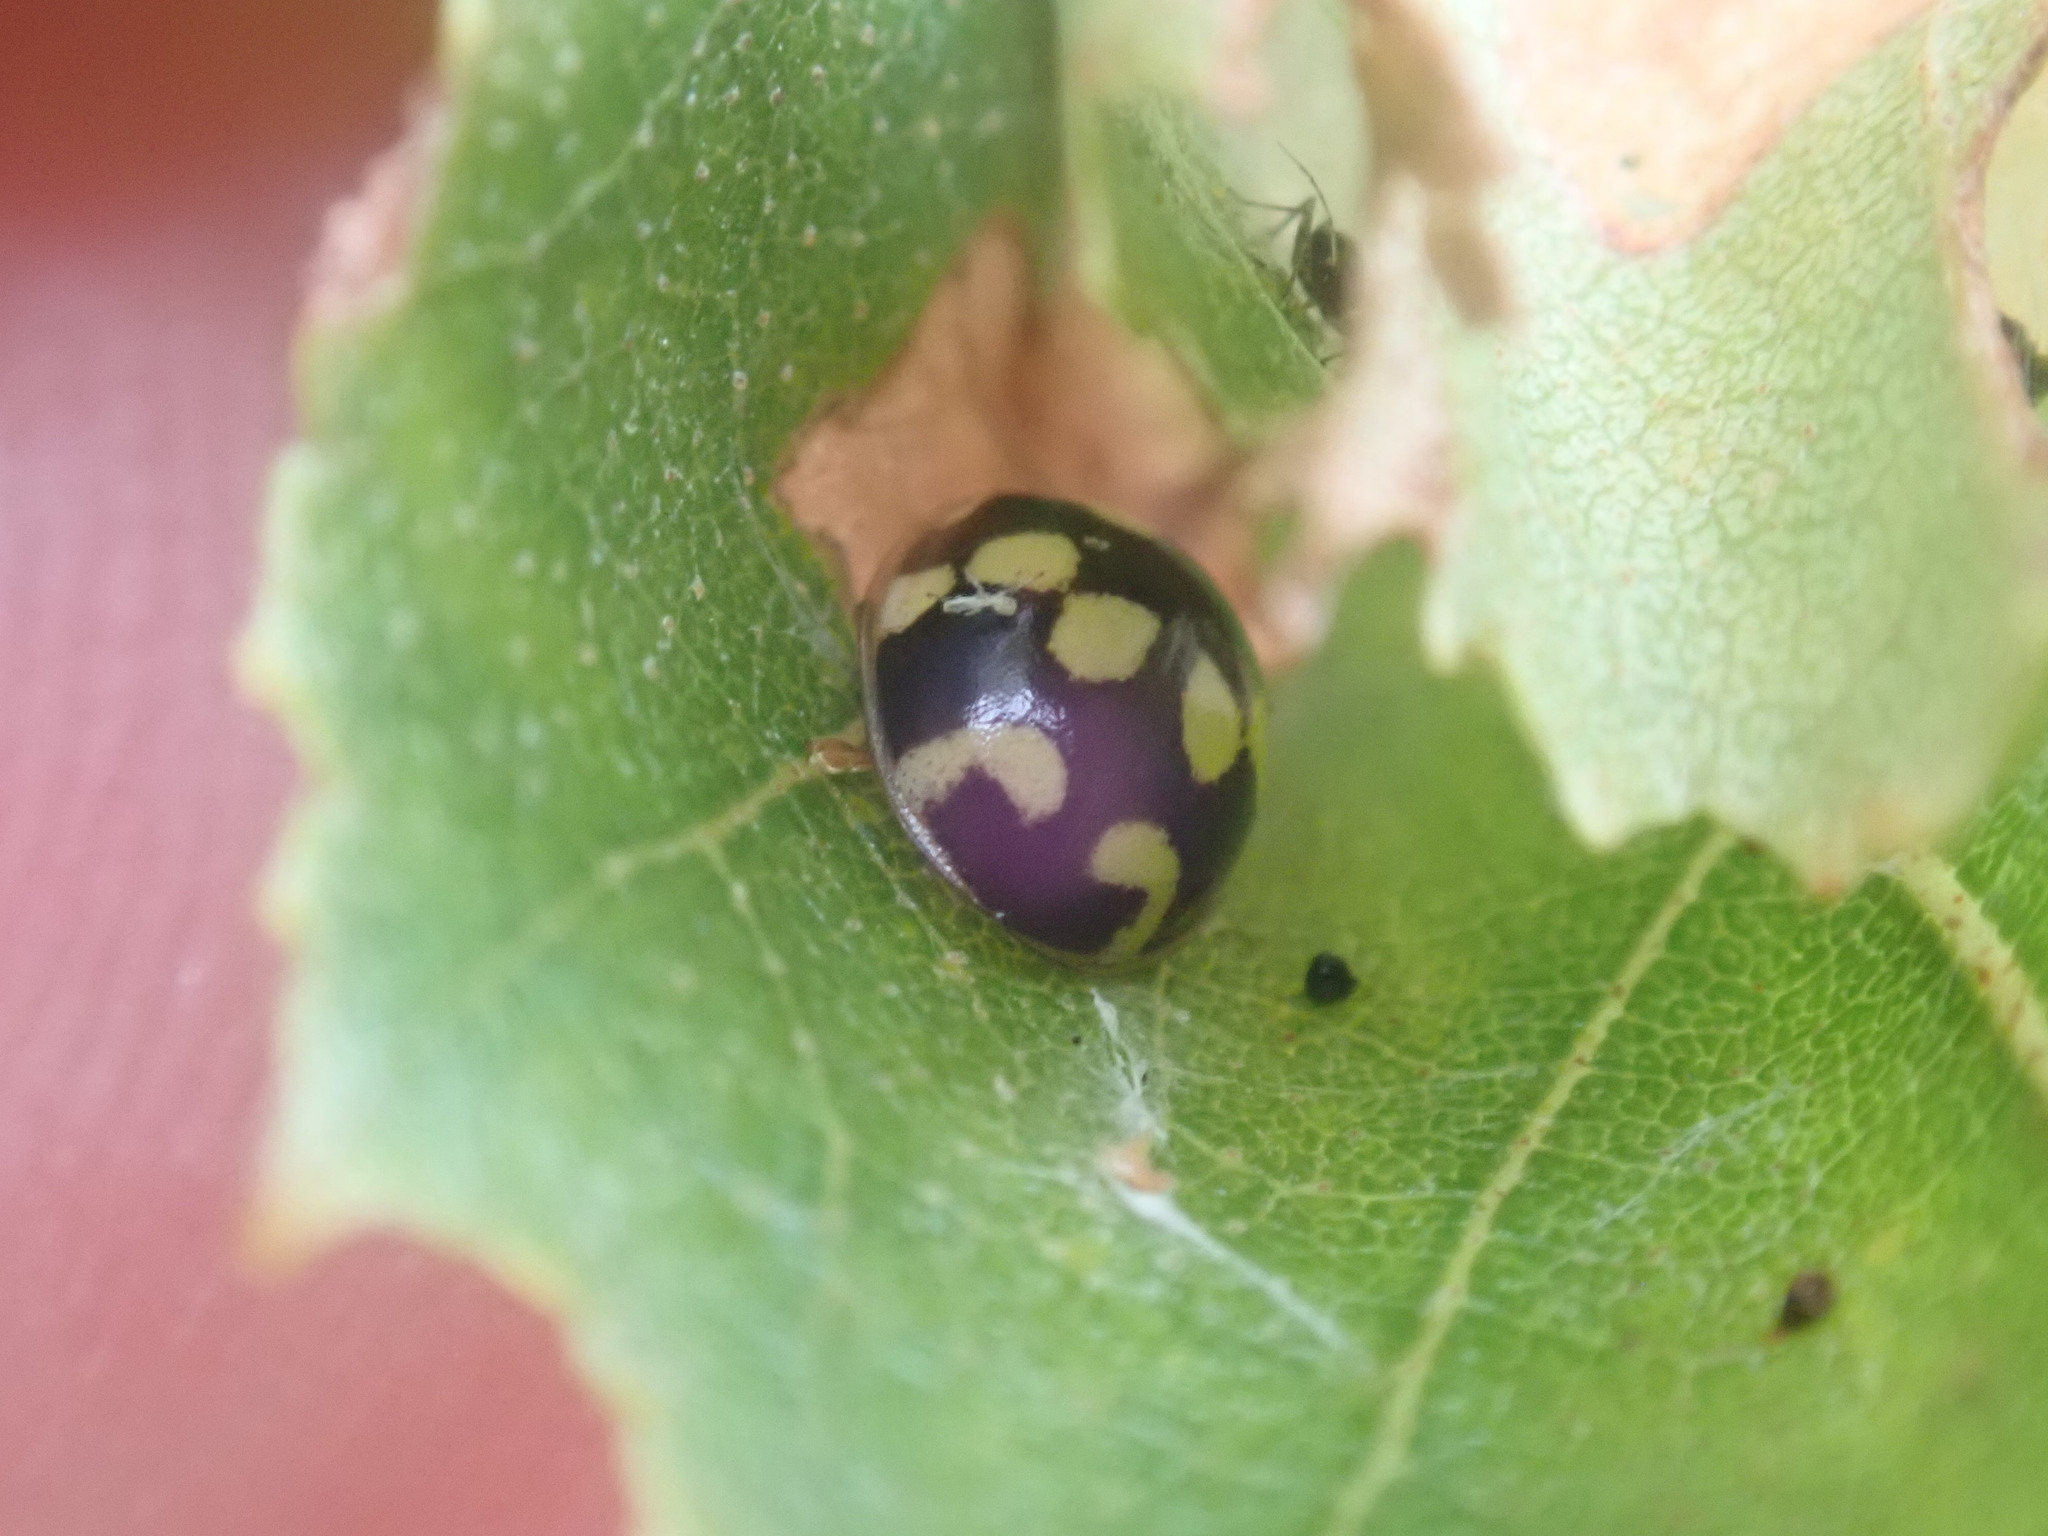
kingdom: Animalia
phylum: Arthropoda
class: Insecta
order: Coleoptera
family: Coccinellidae
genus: Propylaea
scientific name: Propylaea quatuordecimpunctata
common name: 14-spotted ladybird beetle
